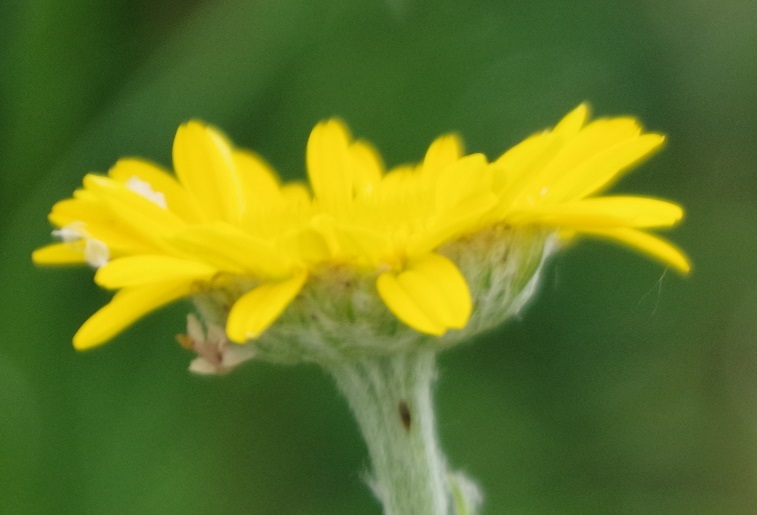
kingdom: Plantae
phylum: Tracheophyta
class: Magnoliopsida
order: Asterales
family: Asteraceae
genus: Cota
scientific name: Cota tinctoria
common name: Golden chamomile
